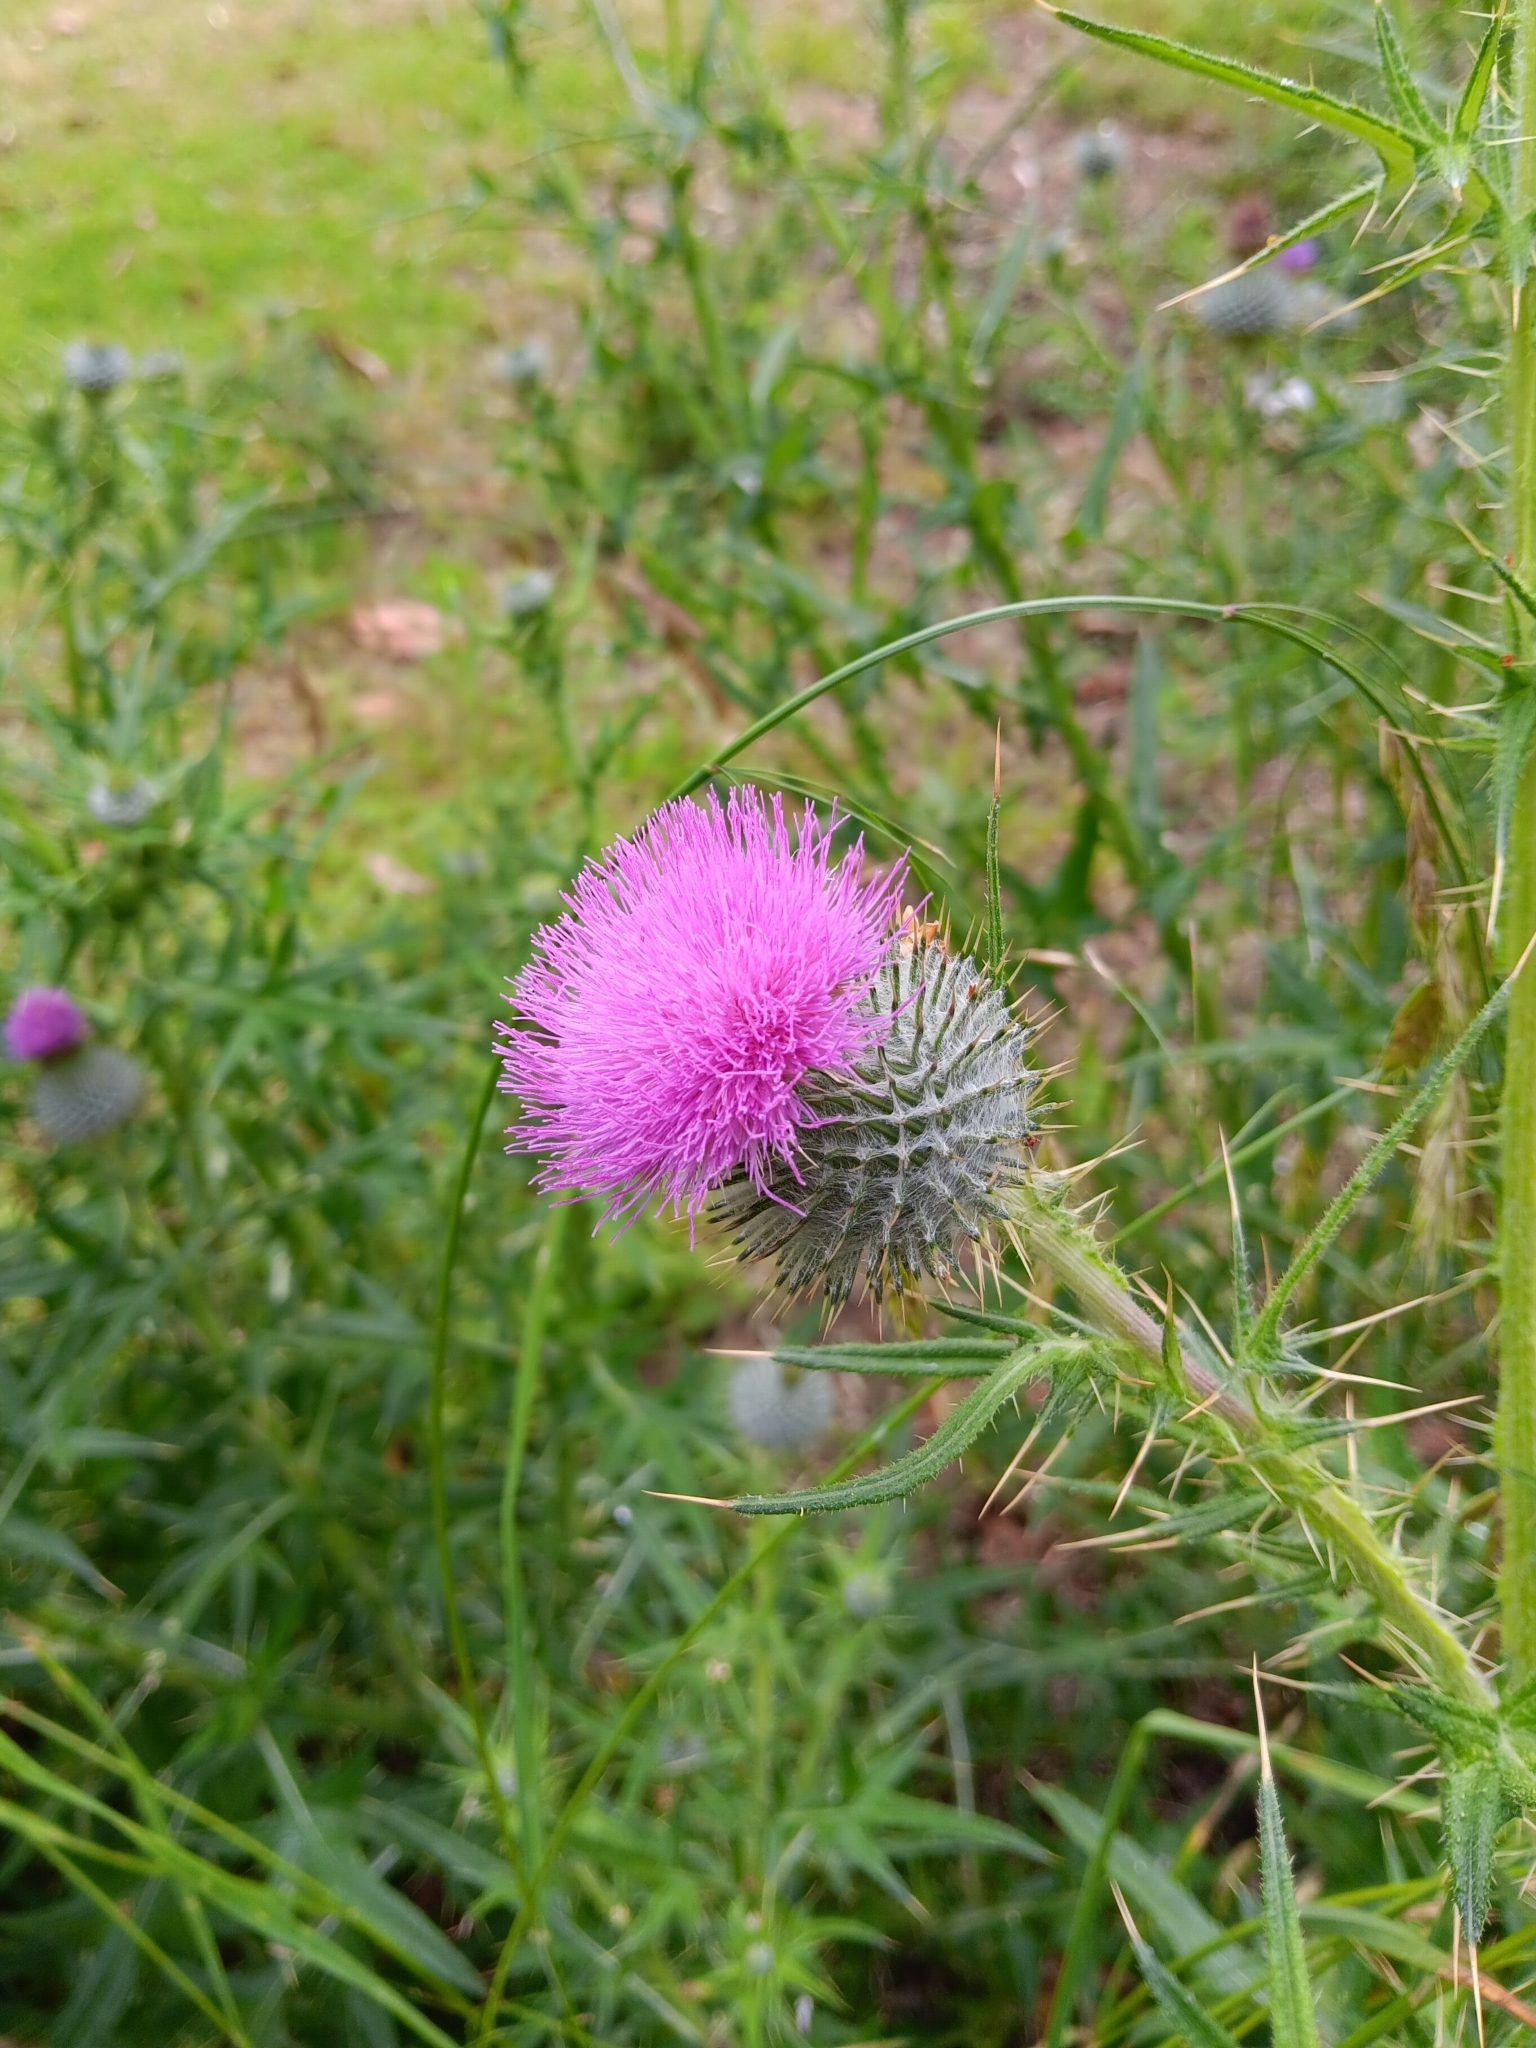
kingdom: Plantae
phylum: Tracheophyta
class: Magnoliopsida
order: Asterales
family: Asteraceae
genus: Cirsium
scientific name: Cirsium vulgare
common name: Bull thistle
